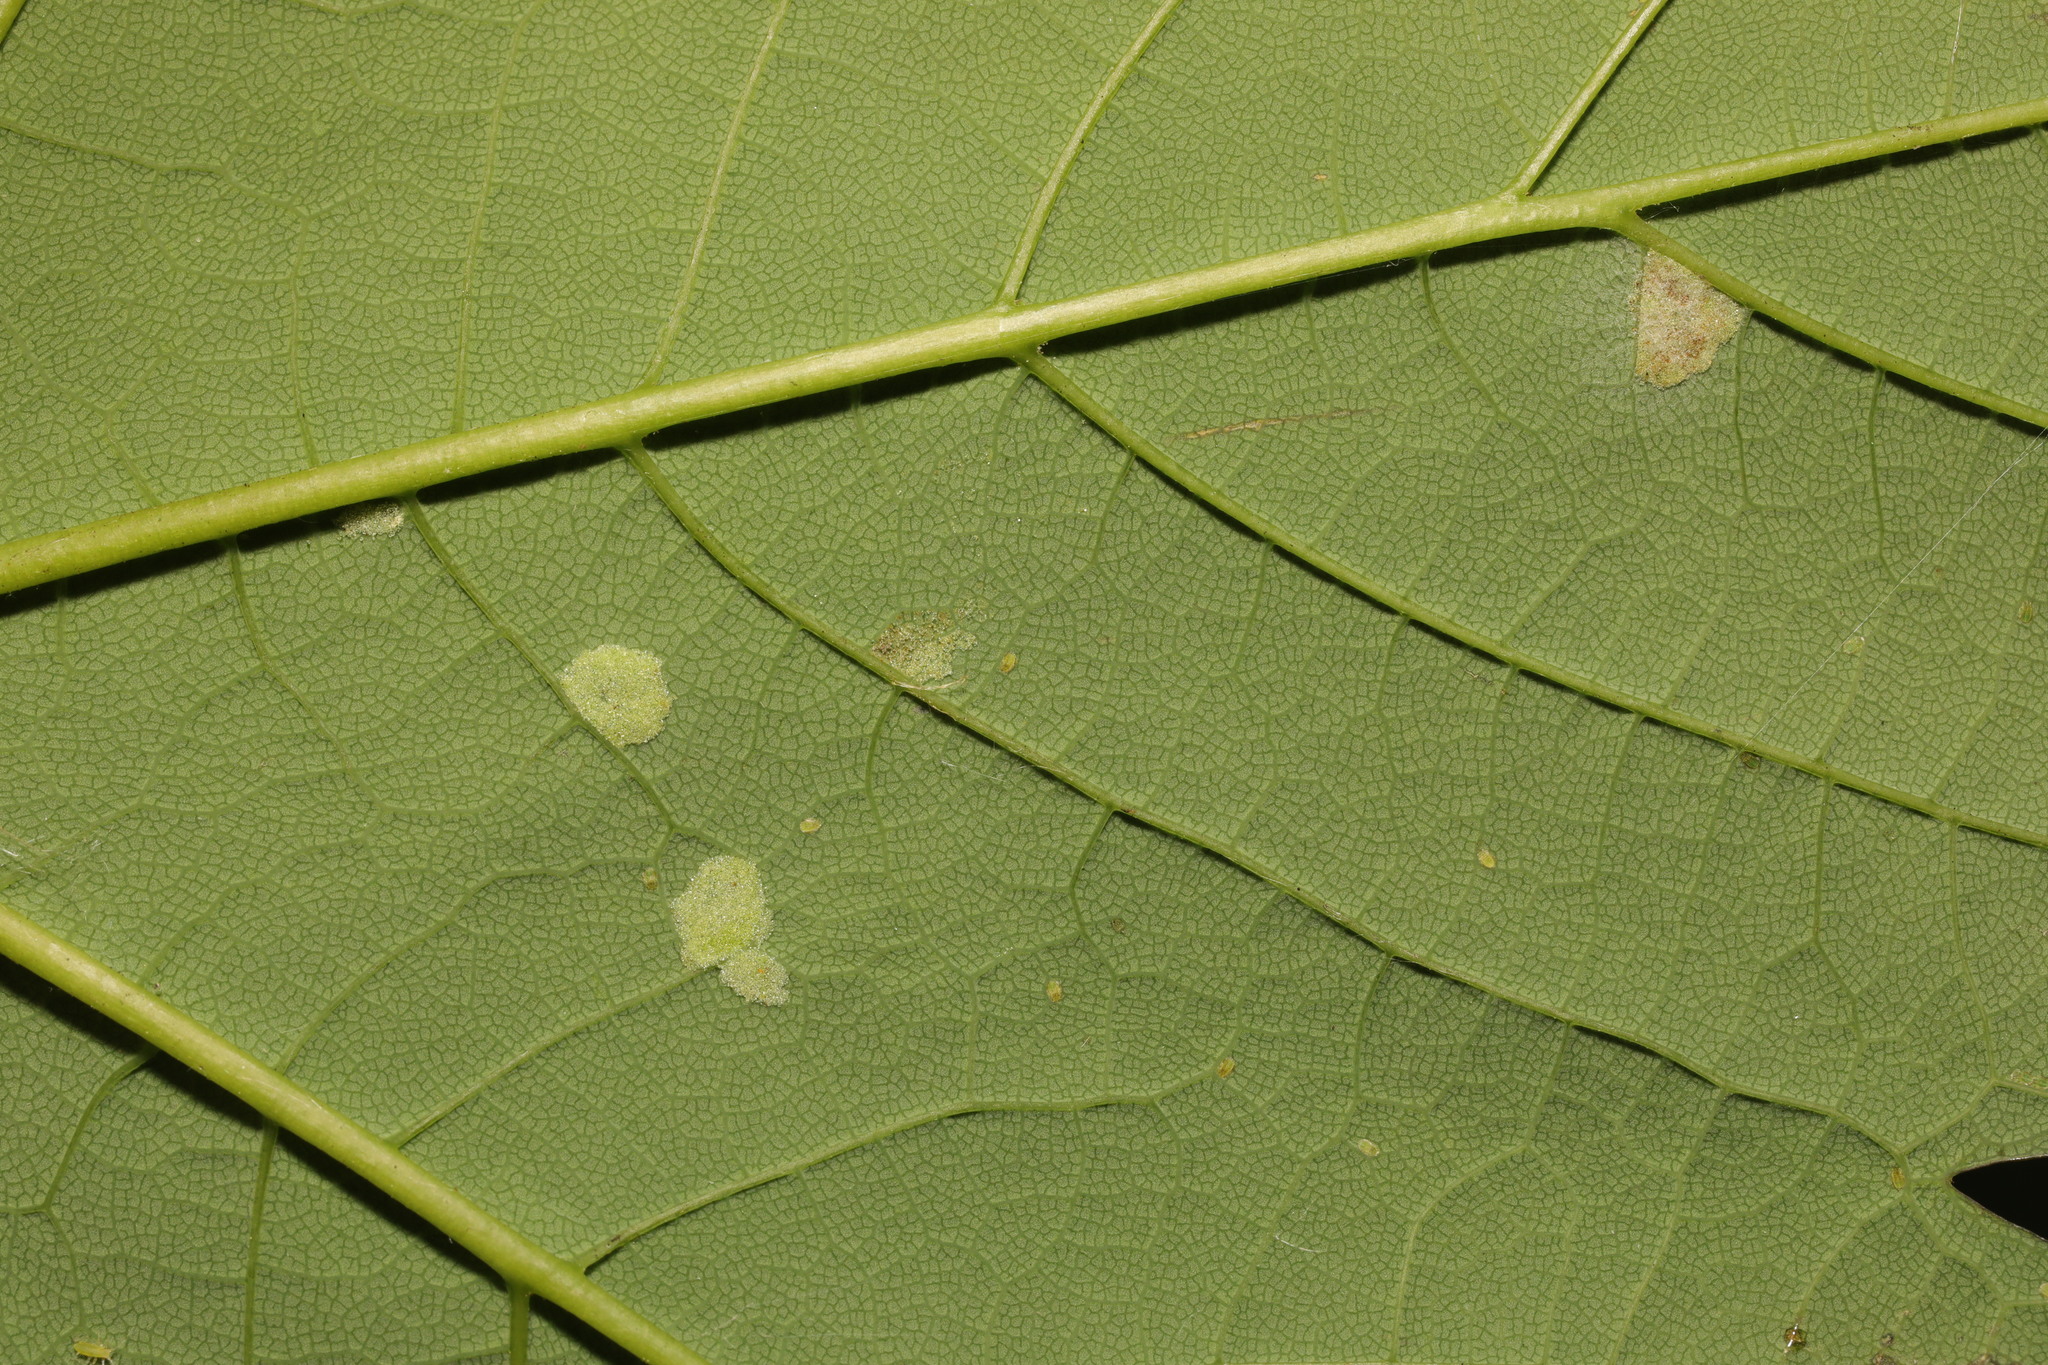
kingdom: Animalia
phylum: Arthropoda
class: Arachnida
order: Trombidiformes
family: Eriophyidae
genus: Aceria
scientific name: Aceria pseudoplatani
